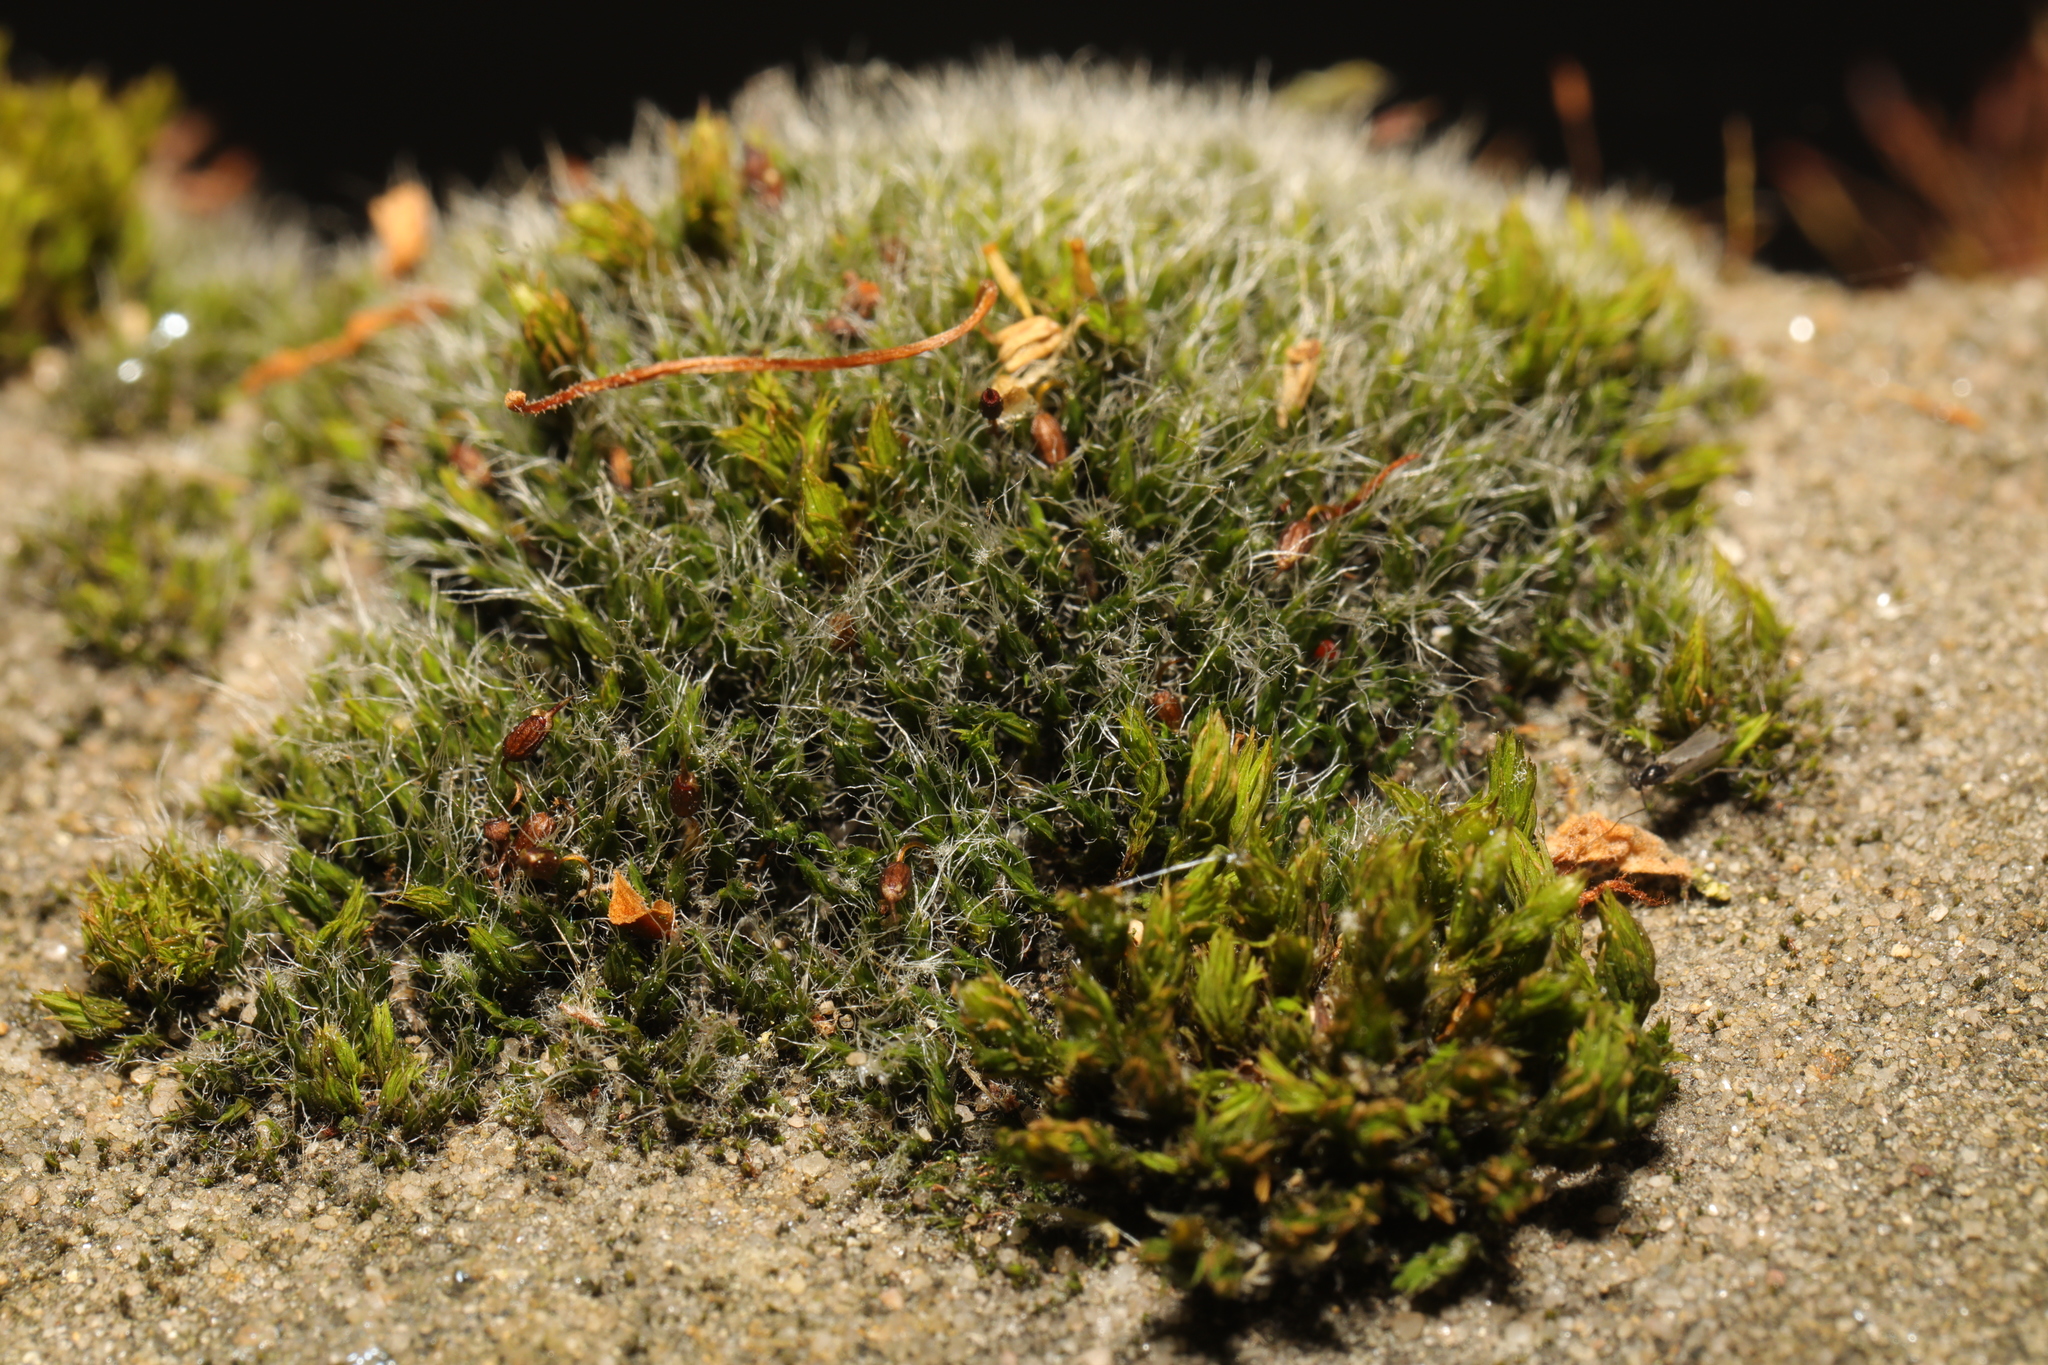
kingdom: Plantae
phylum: Bryophyta
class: Bryopsida
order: Grimmiales
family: Grimmiaceae
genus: Grimmia
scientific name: Grimmia pulvinata
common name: Grey-cushioned grimmia
